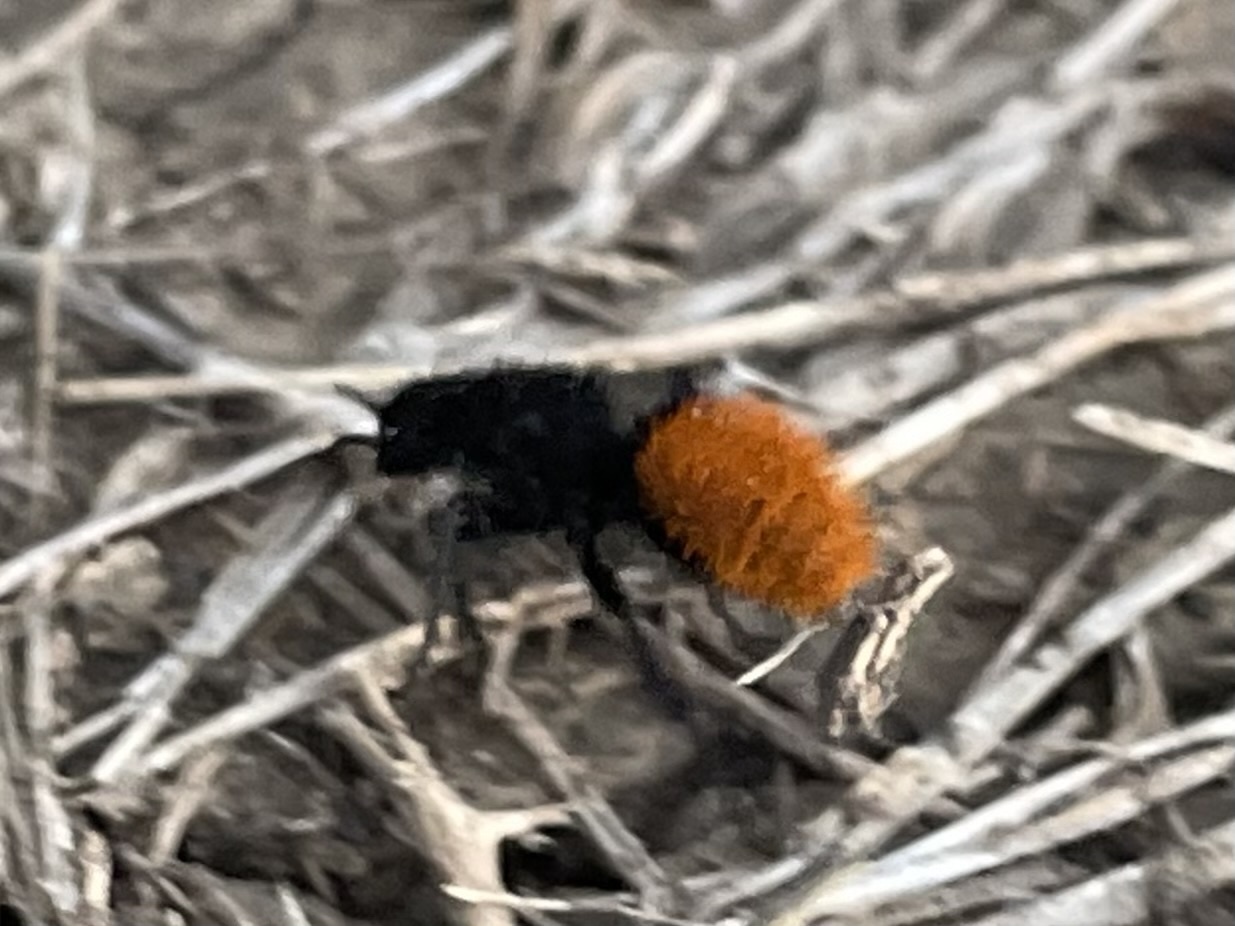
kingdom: Animalia
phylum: Arthropoda
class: Insecta
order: Hymenoptera
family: Mutillidae
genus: Dasymutilla
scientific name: Dasymutilla
